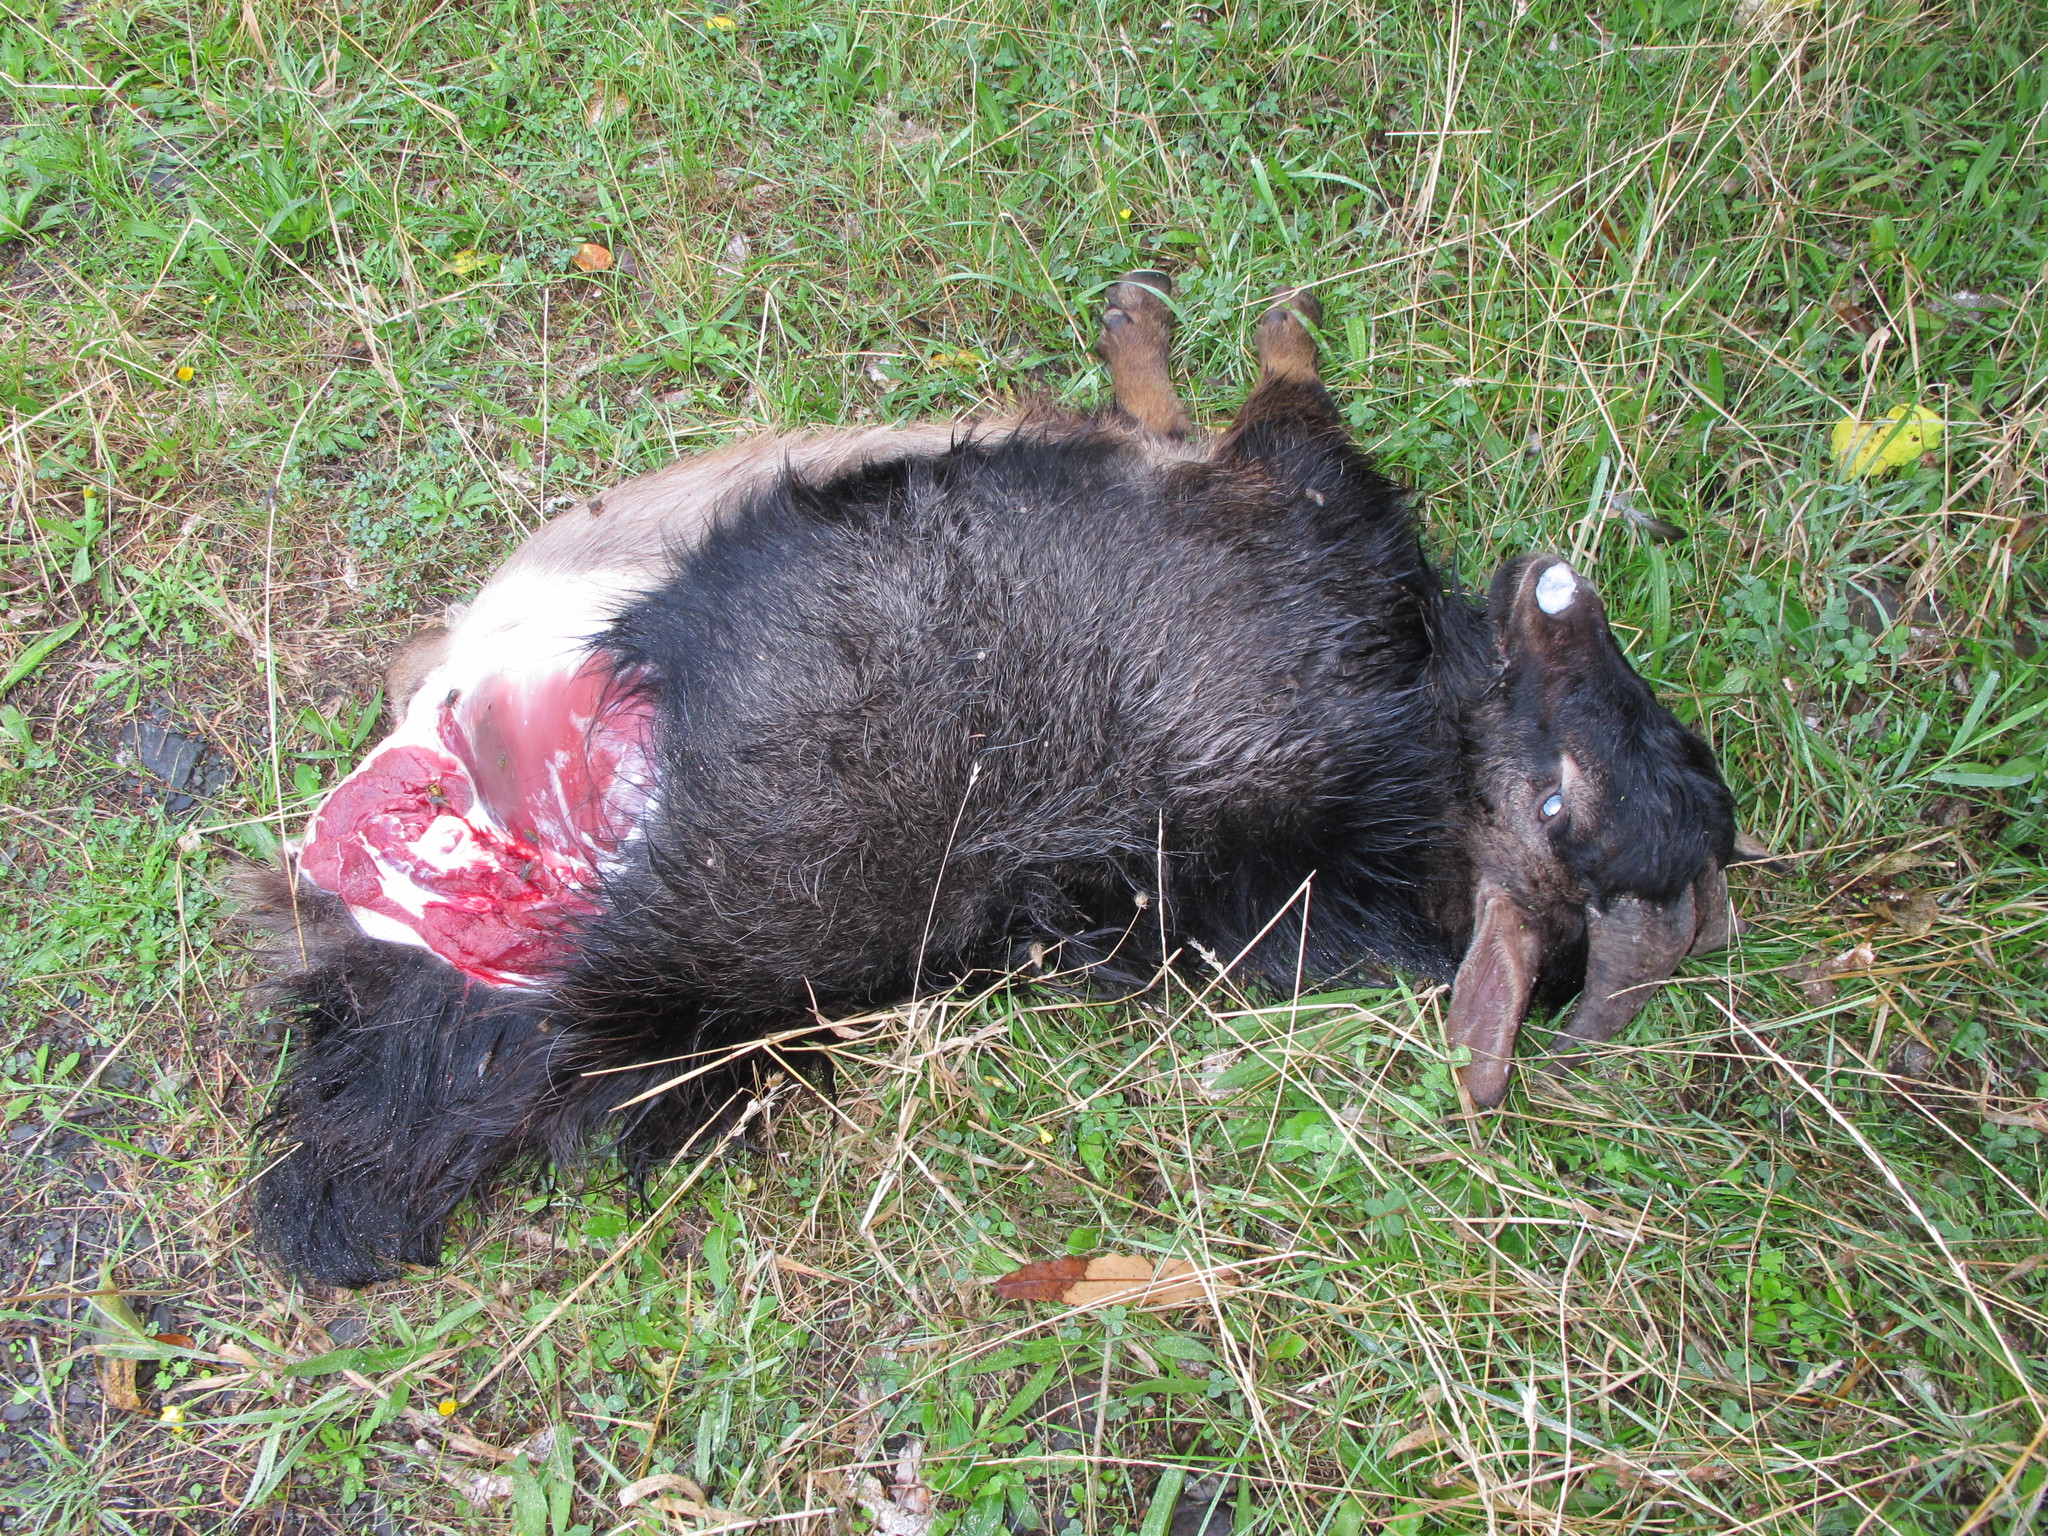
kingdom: Animalia
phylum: Chordata
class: Mammalia
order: Artiodactyla
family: Bovidae
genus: Capra
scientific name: Capra hircus
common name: Domestic goat
